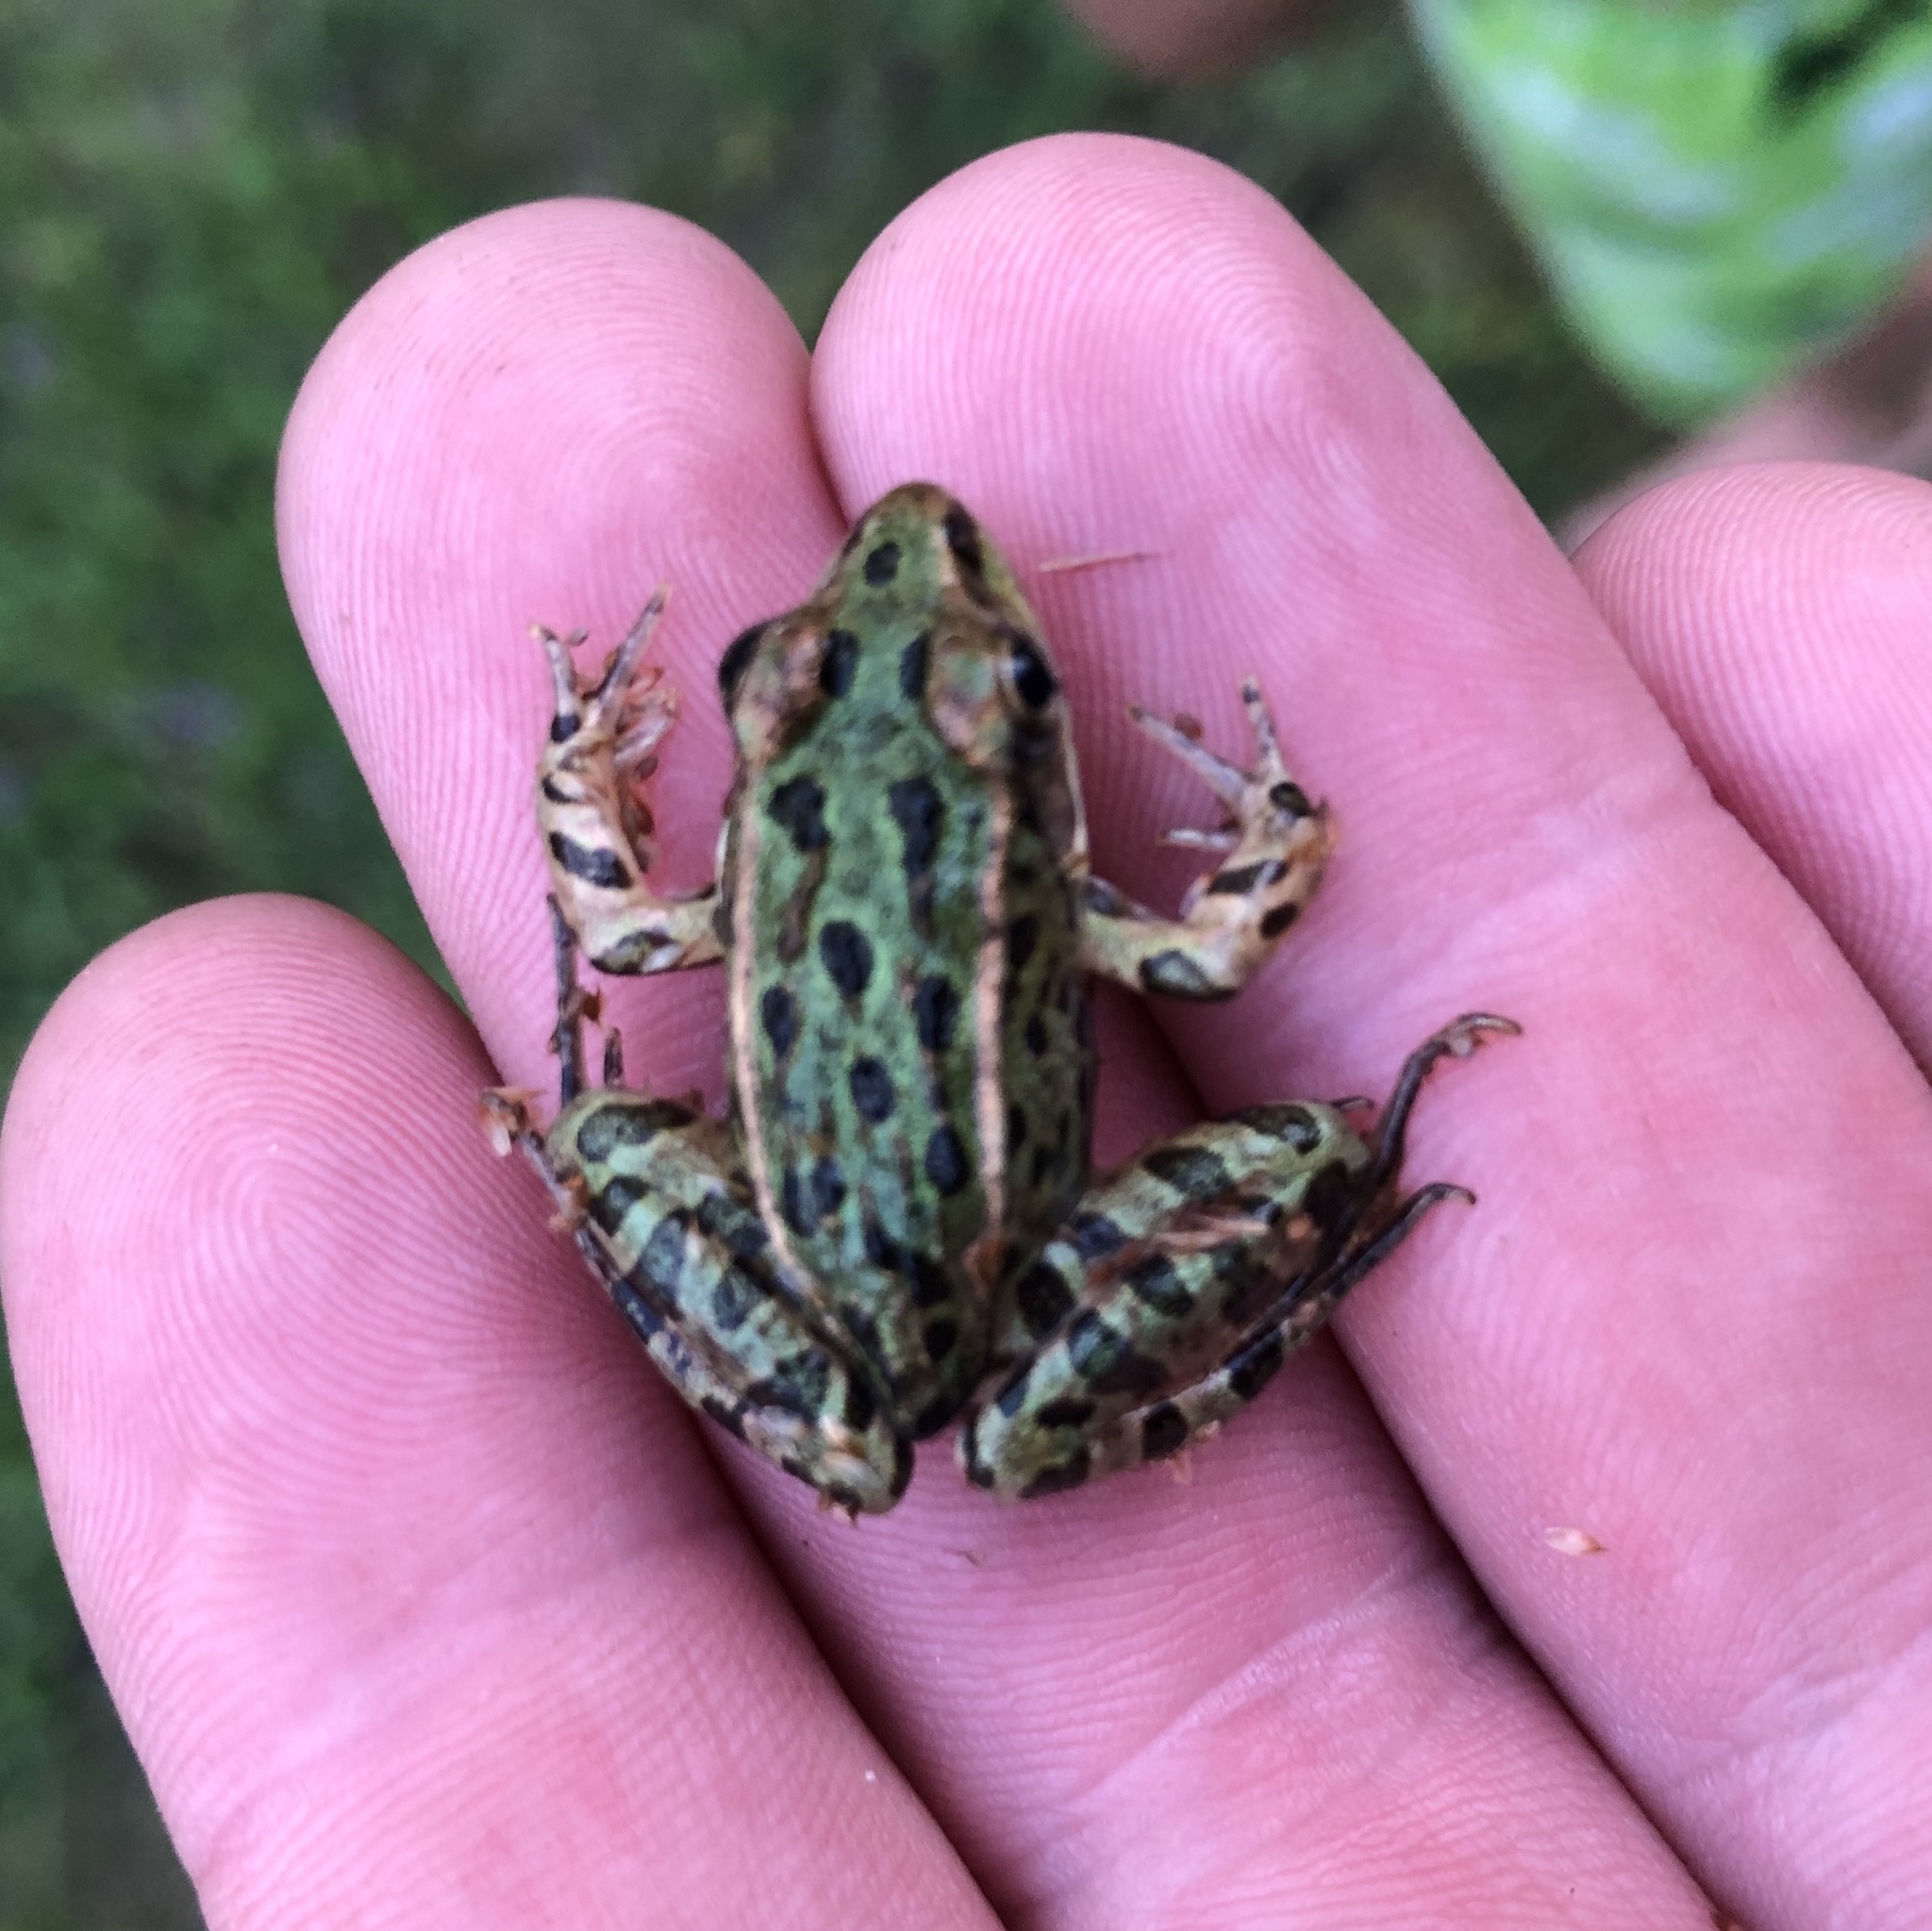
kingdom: Animalia
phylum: Chordata
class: Amphibia
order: Anura
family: Ranidae
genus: Lithobates
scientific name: Lithobates pipiens
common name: Northern leopard frog
